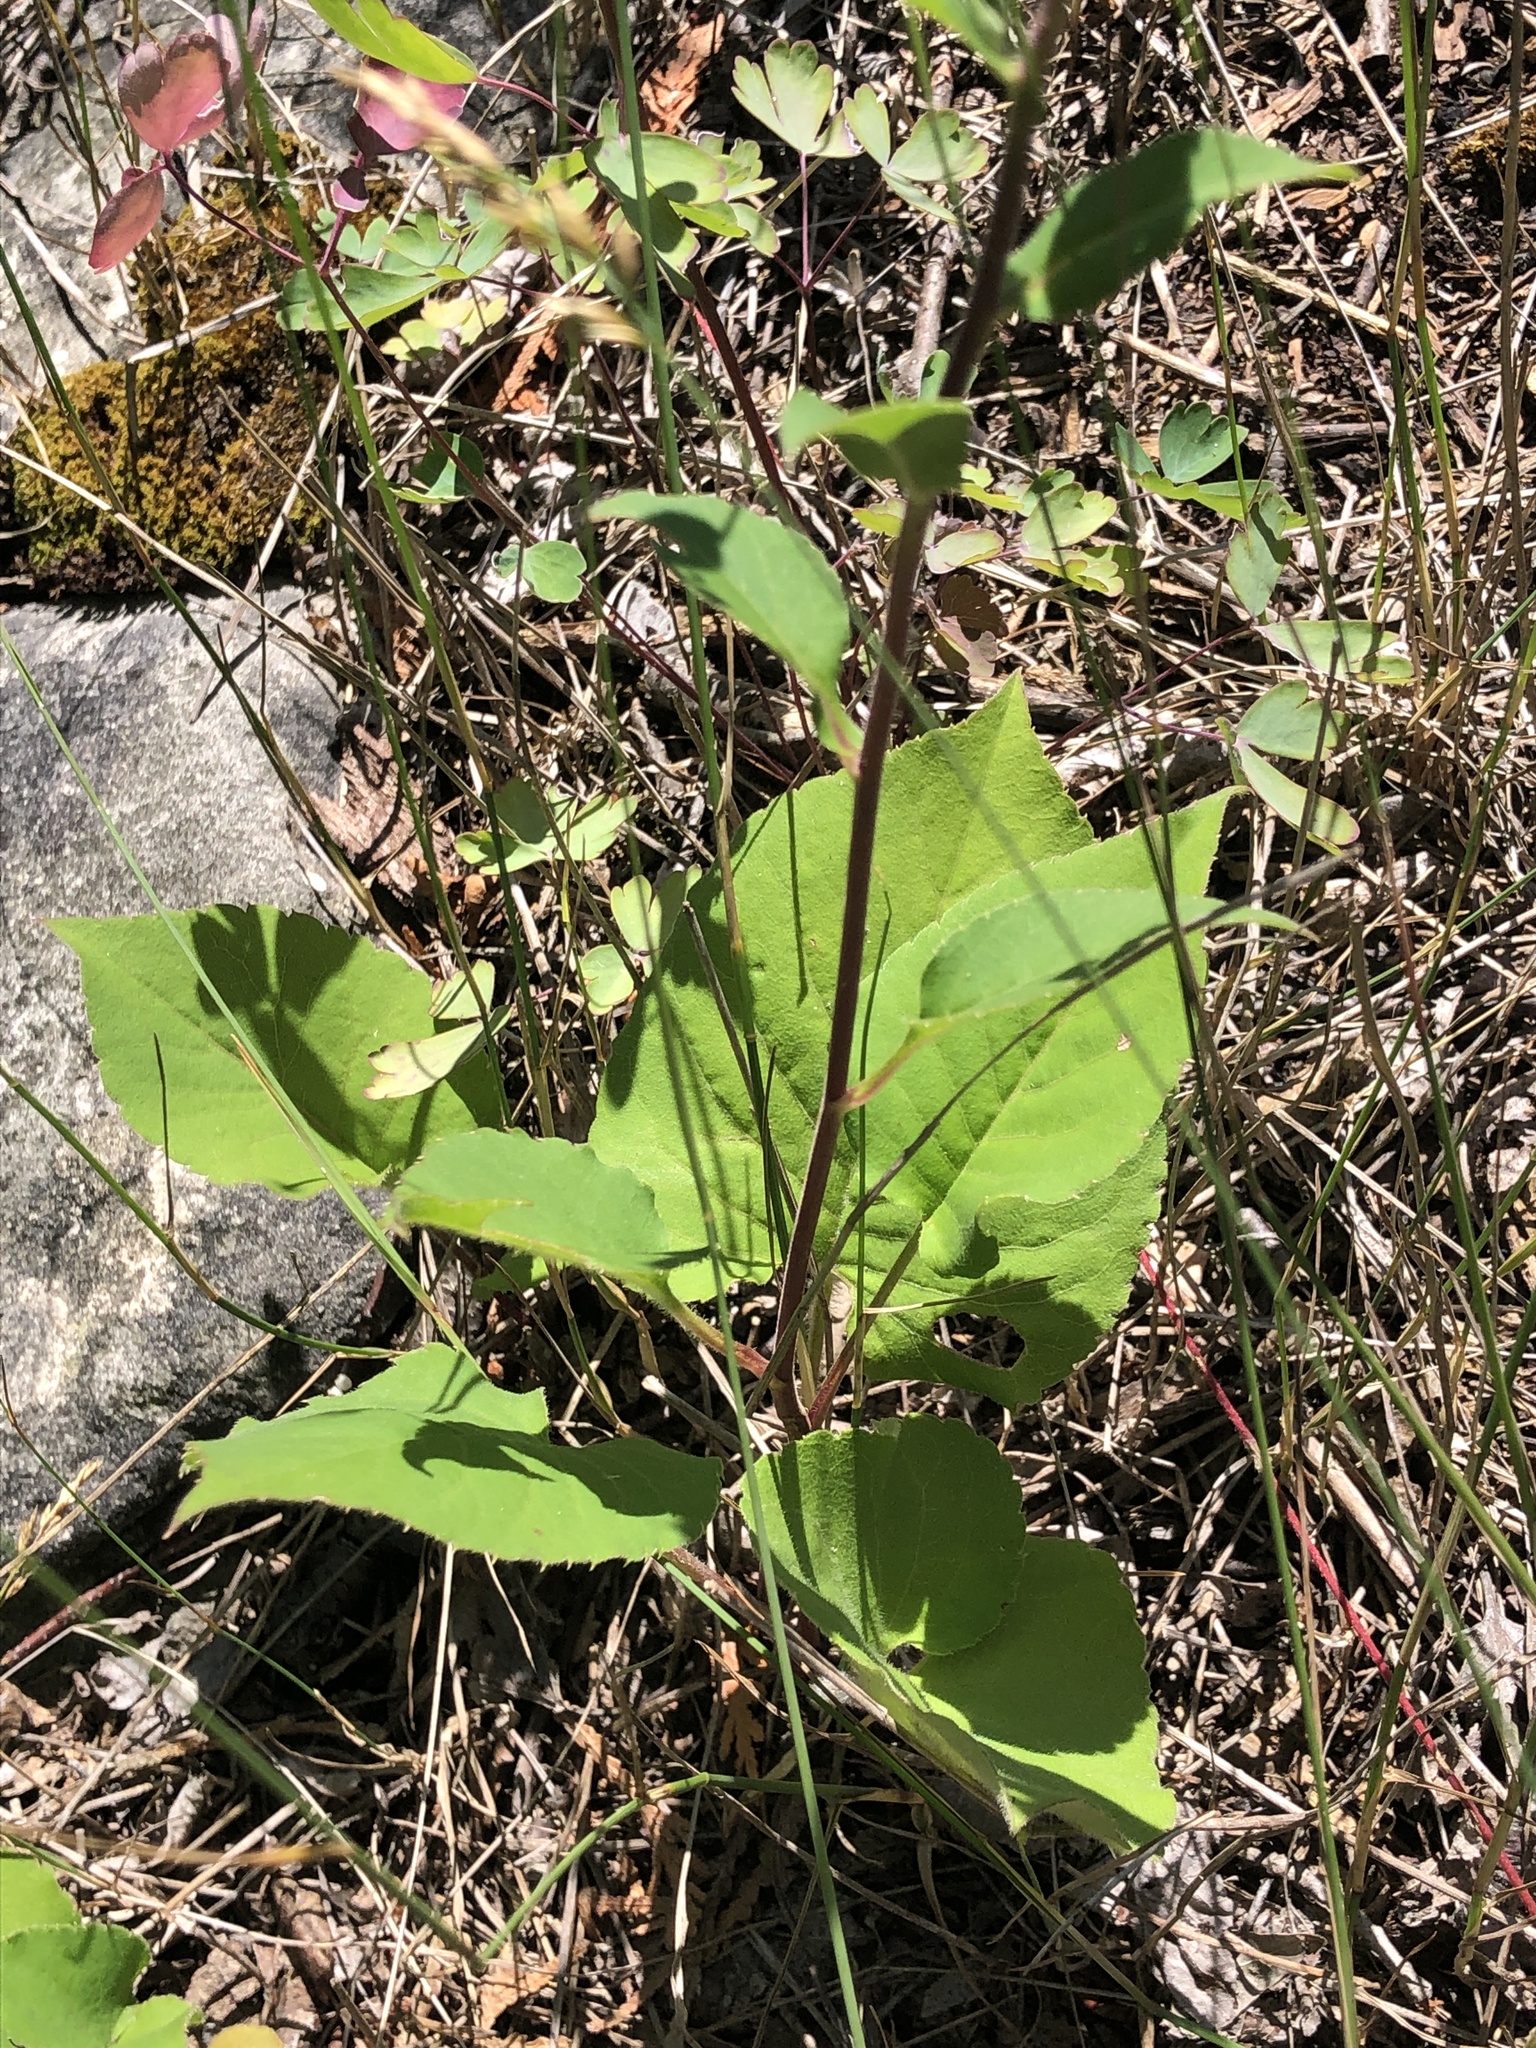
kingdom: Plantae
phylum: Tracheophyta
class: Magnoliopsida
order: Asterales
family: Asteraceae
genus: Eurybia
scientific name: Eurybia macrophylla
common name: Big-leaved aster
